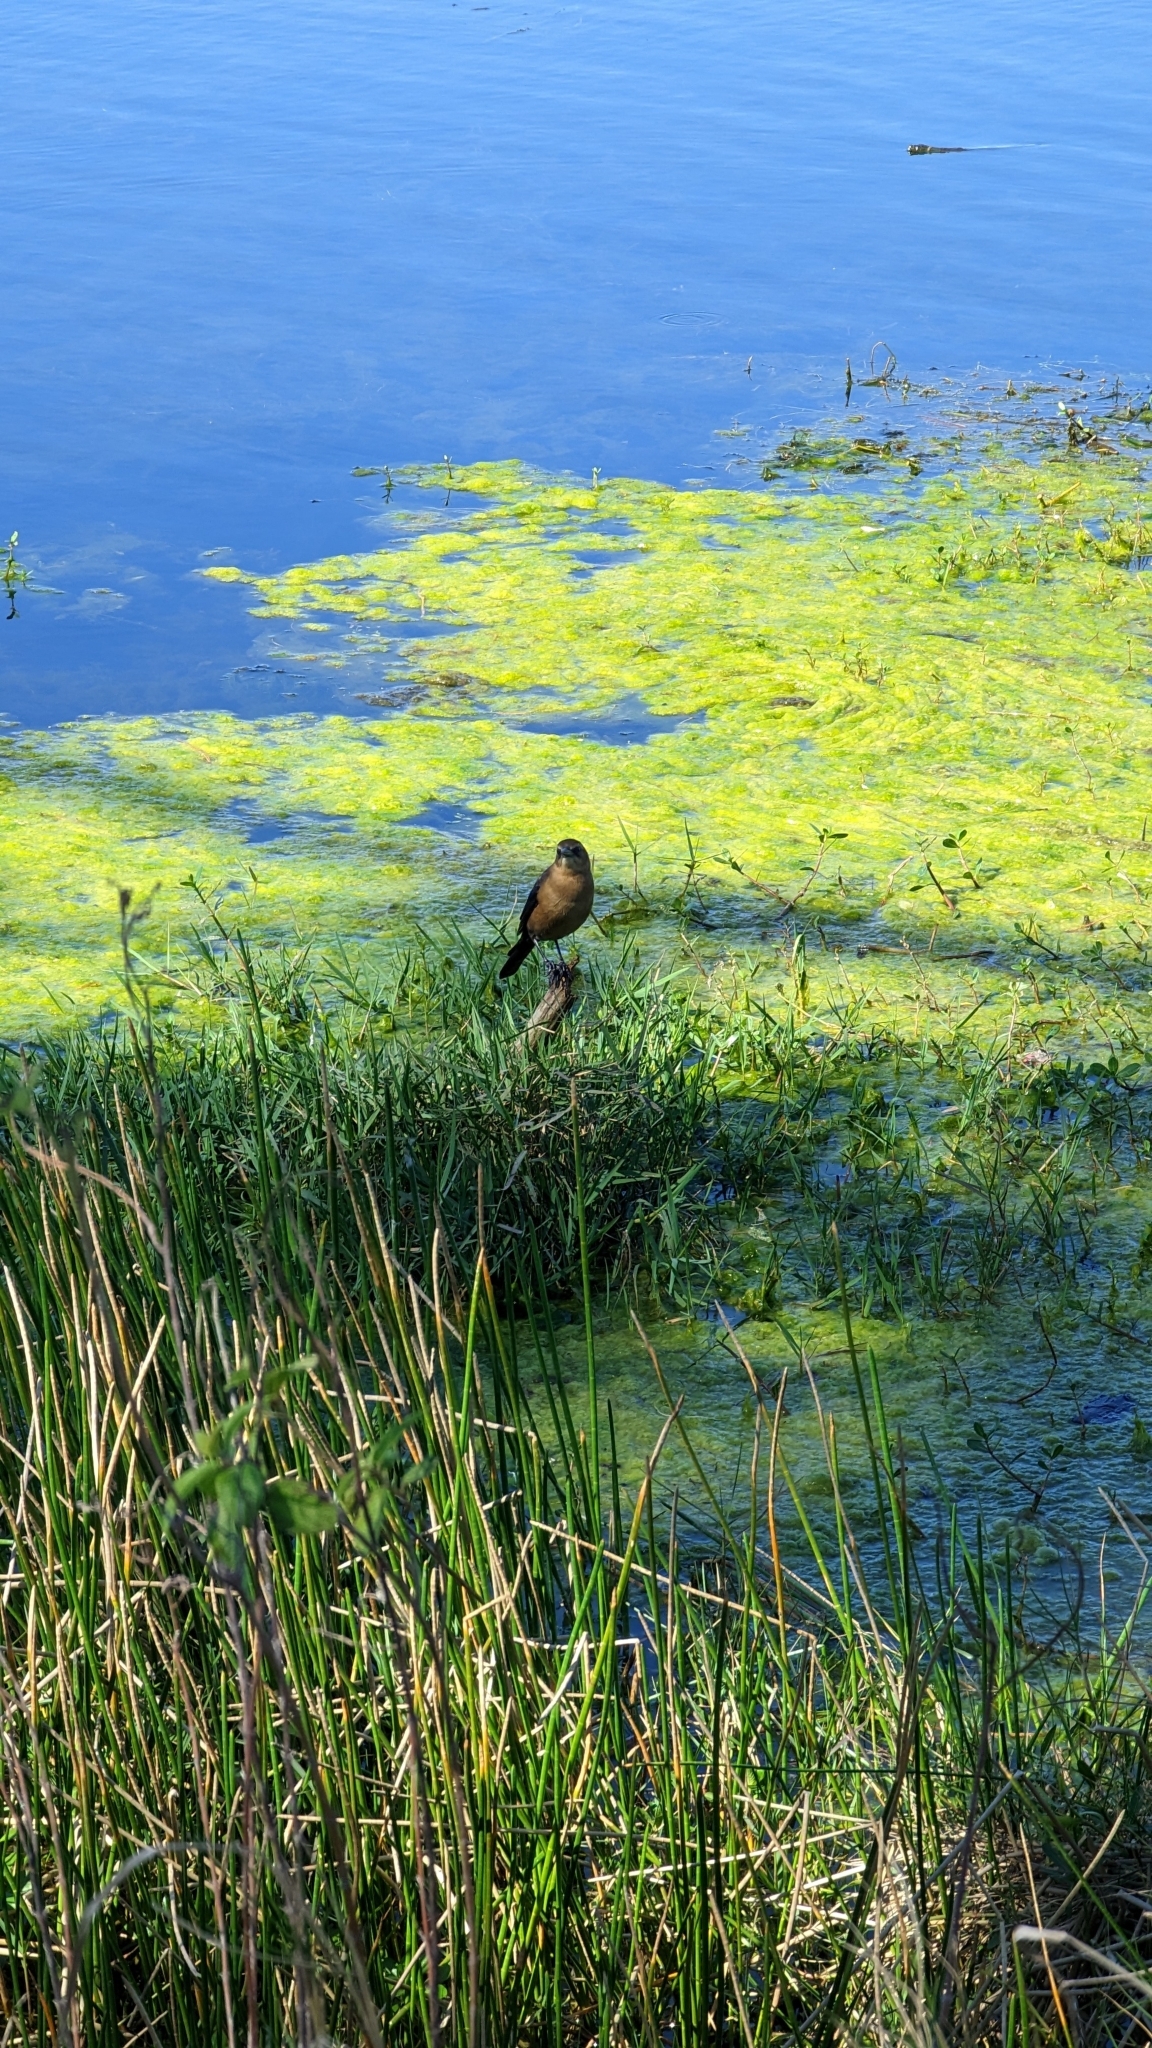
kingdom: Animalia
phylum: Chordata
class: Aves
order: Passeriformes
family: Icteridae
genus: Quiscalus
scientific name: Quiscalus major
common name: Boat-tailed grackle
